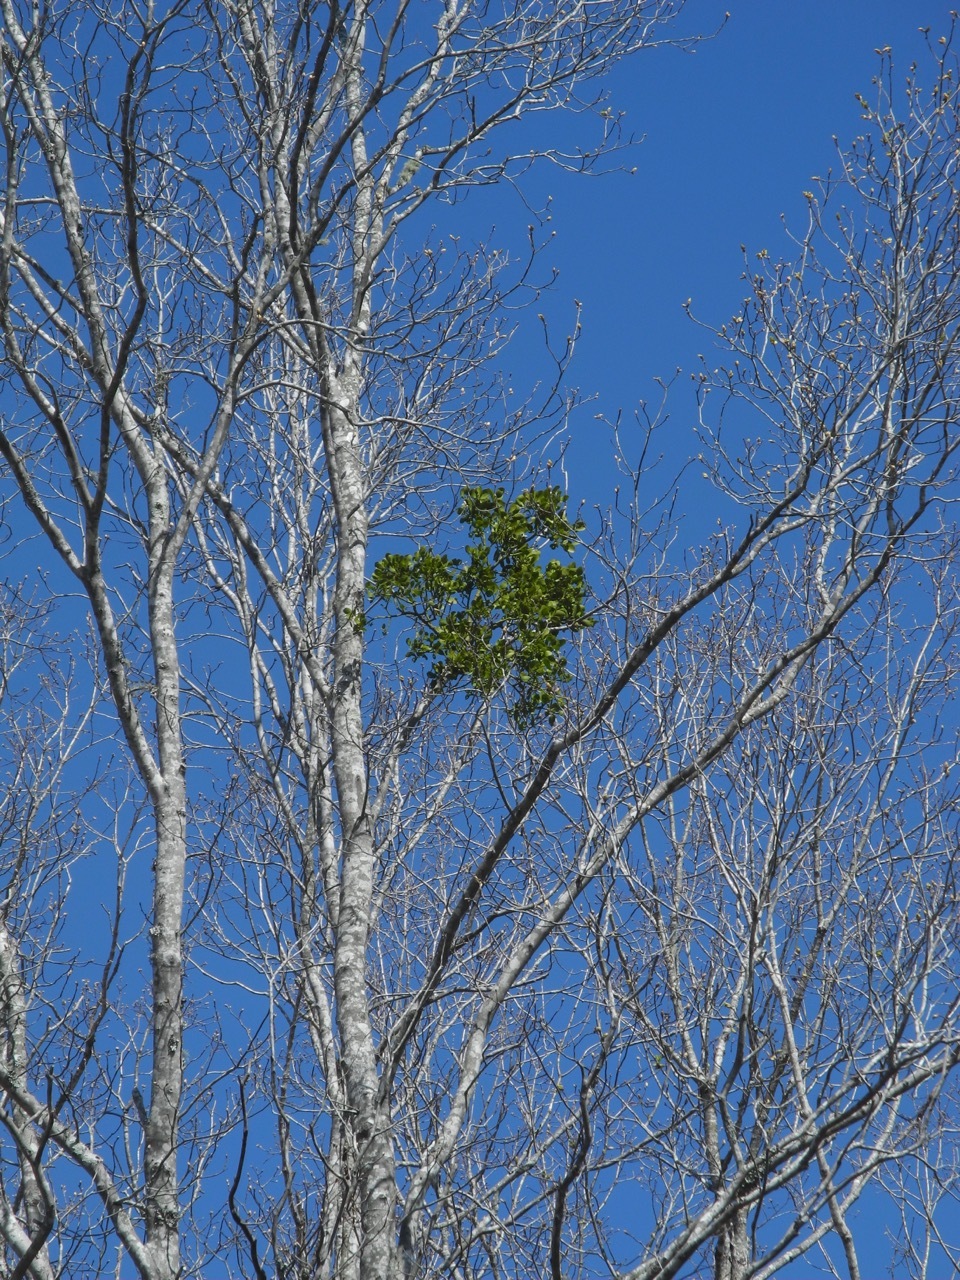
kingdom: Plantae
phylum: Tracheophyta
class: Magnoliopsida
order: Santalales
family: Viscaceae
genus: Phoradendron
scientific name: Phoradendron leucarpum
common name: Pacific mistletoe
